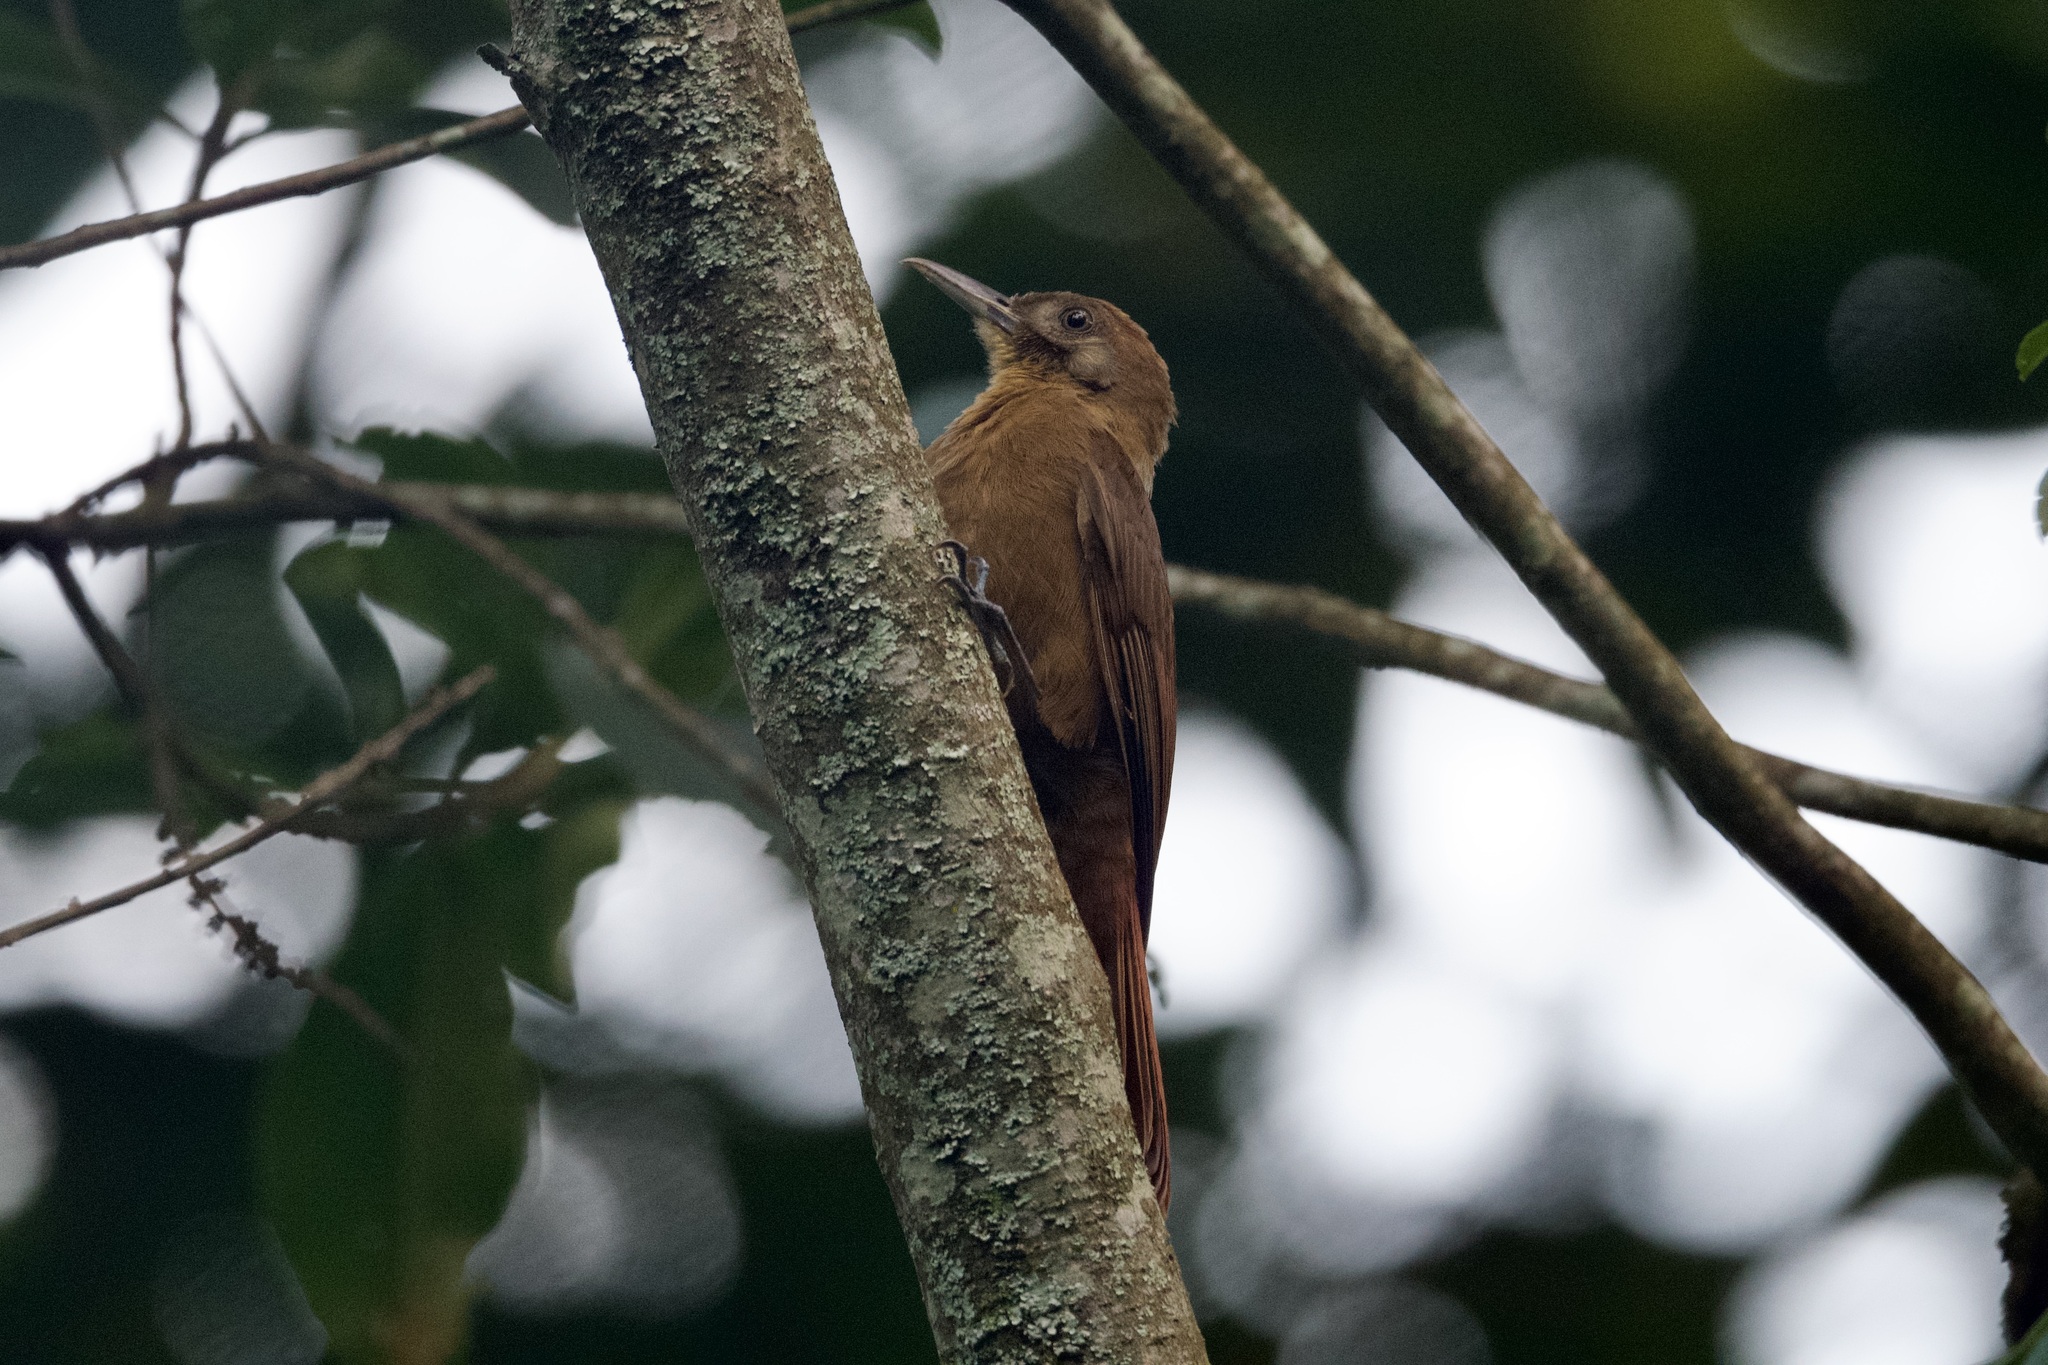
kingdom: Animalia
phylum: Chordata
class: Aves
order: Passeriformes
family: Furnariidae
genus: Dendrocincla
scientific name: Dendrocincla fuliginosa
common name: Plain-brown woodcreeper
